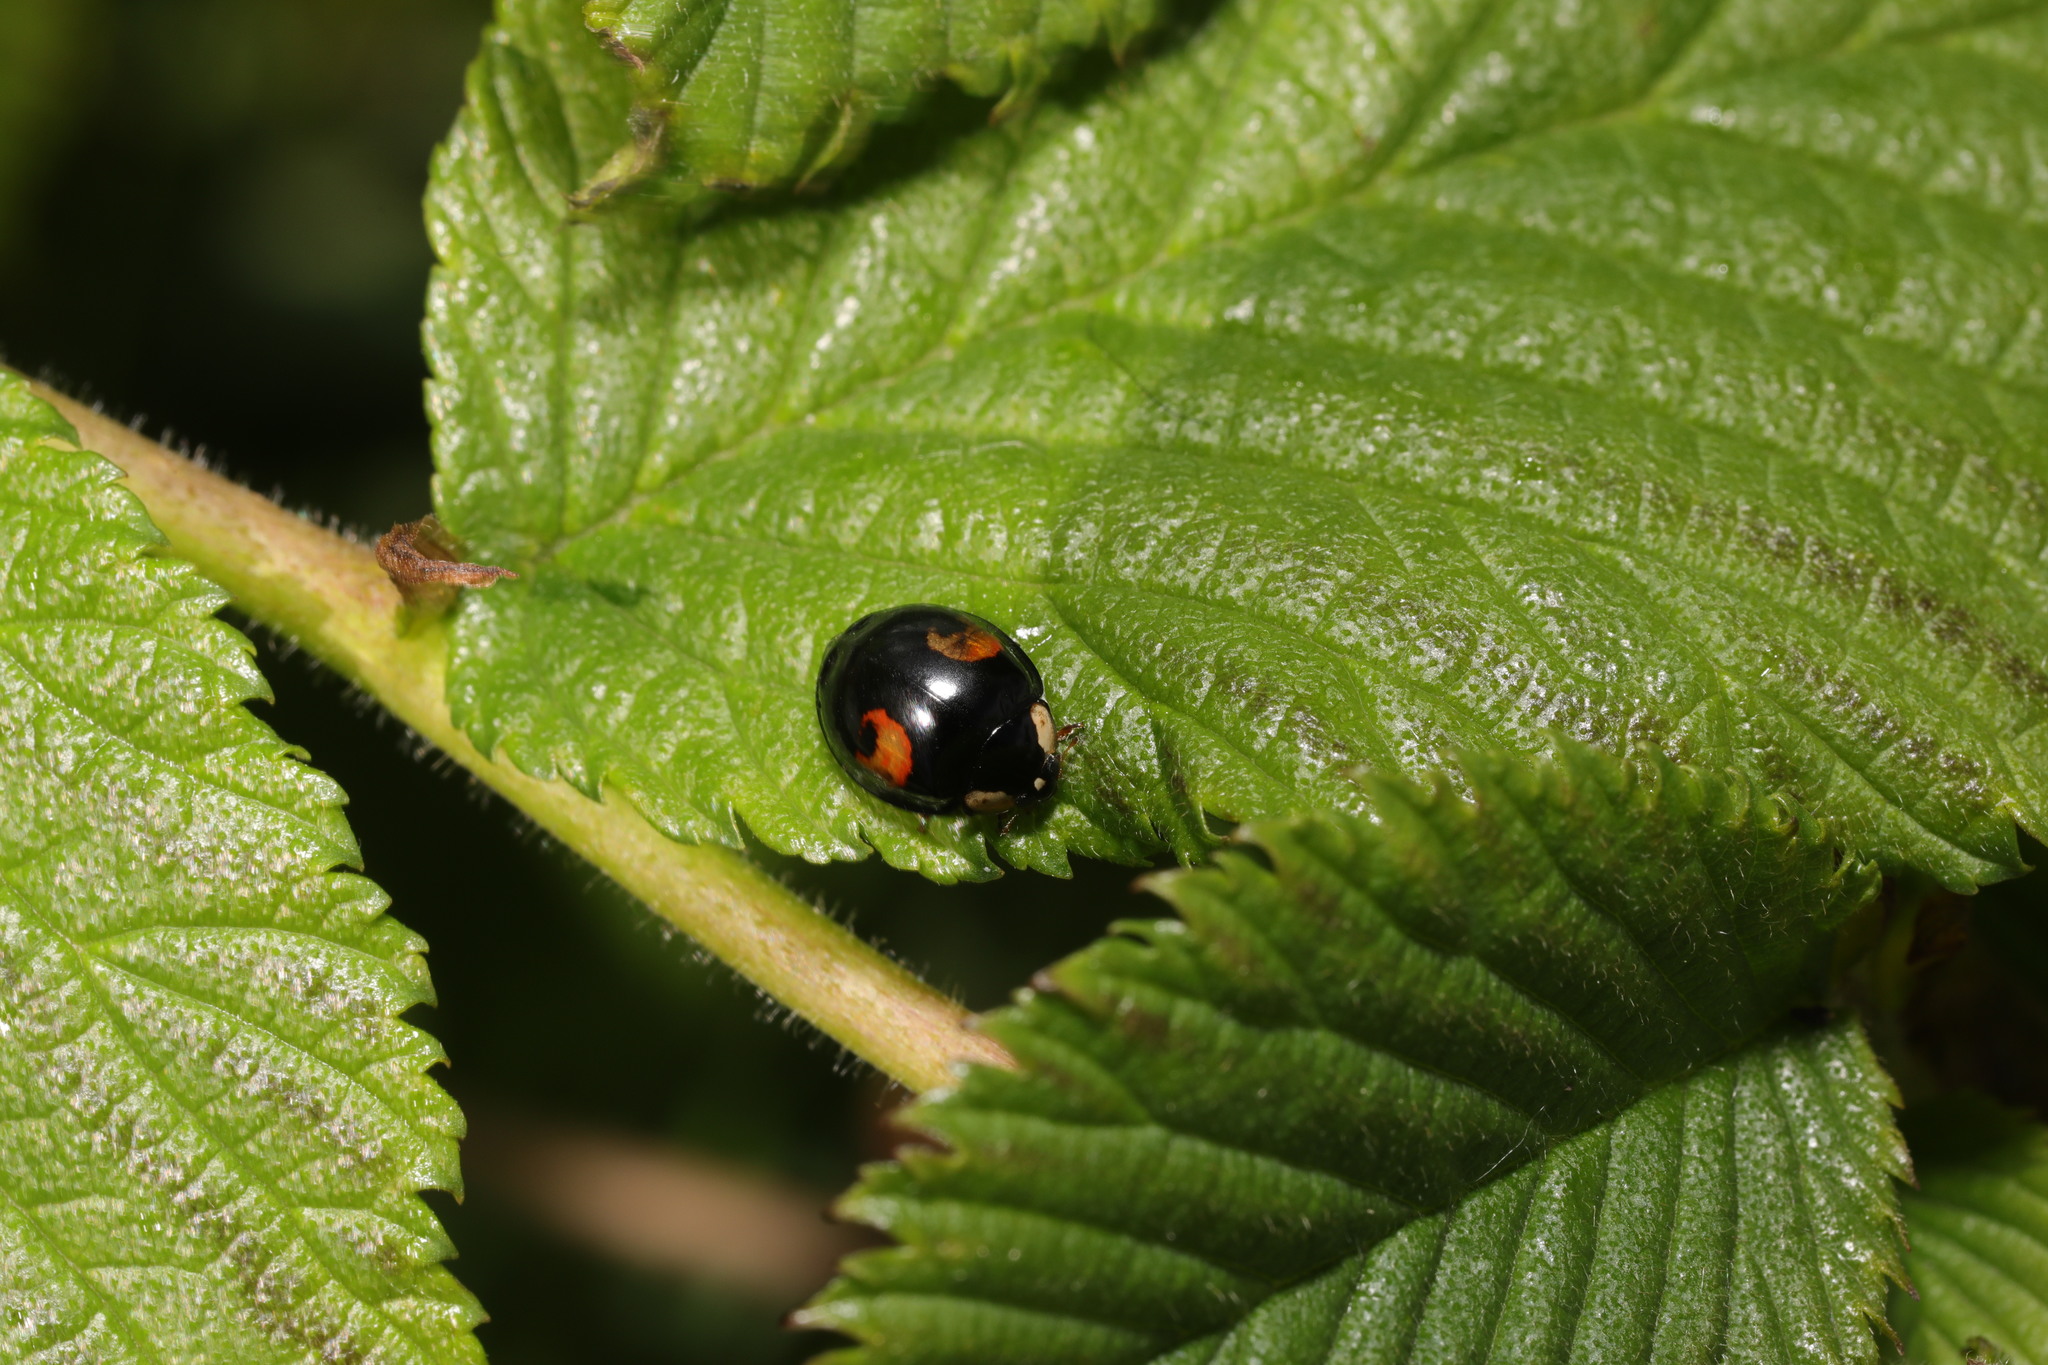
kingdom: Animalia
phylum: Arthropoda
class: Insecta
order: Coleoptera
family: Coccinellidae
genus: Harmonia
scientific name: Harmonia axyridis
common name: Harlequin ladybird
